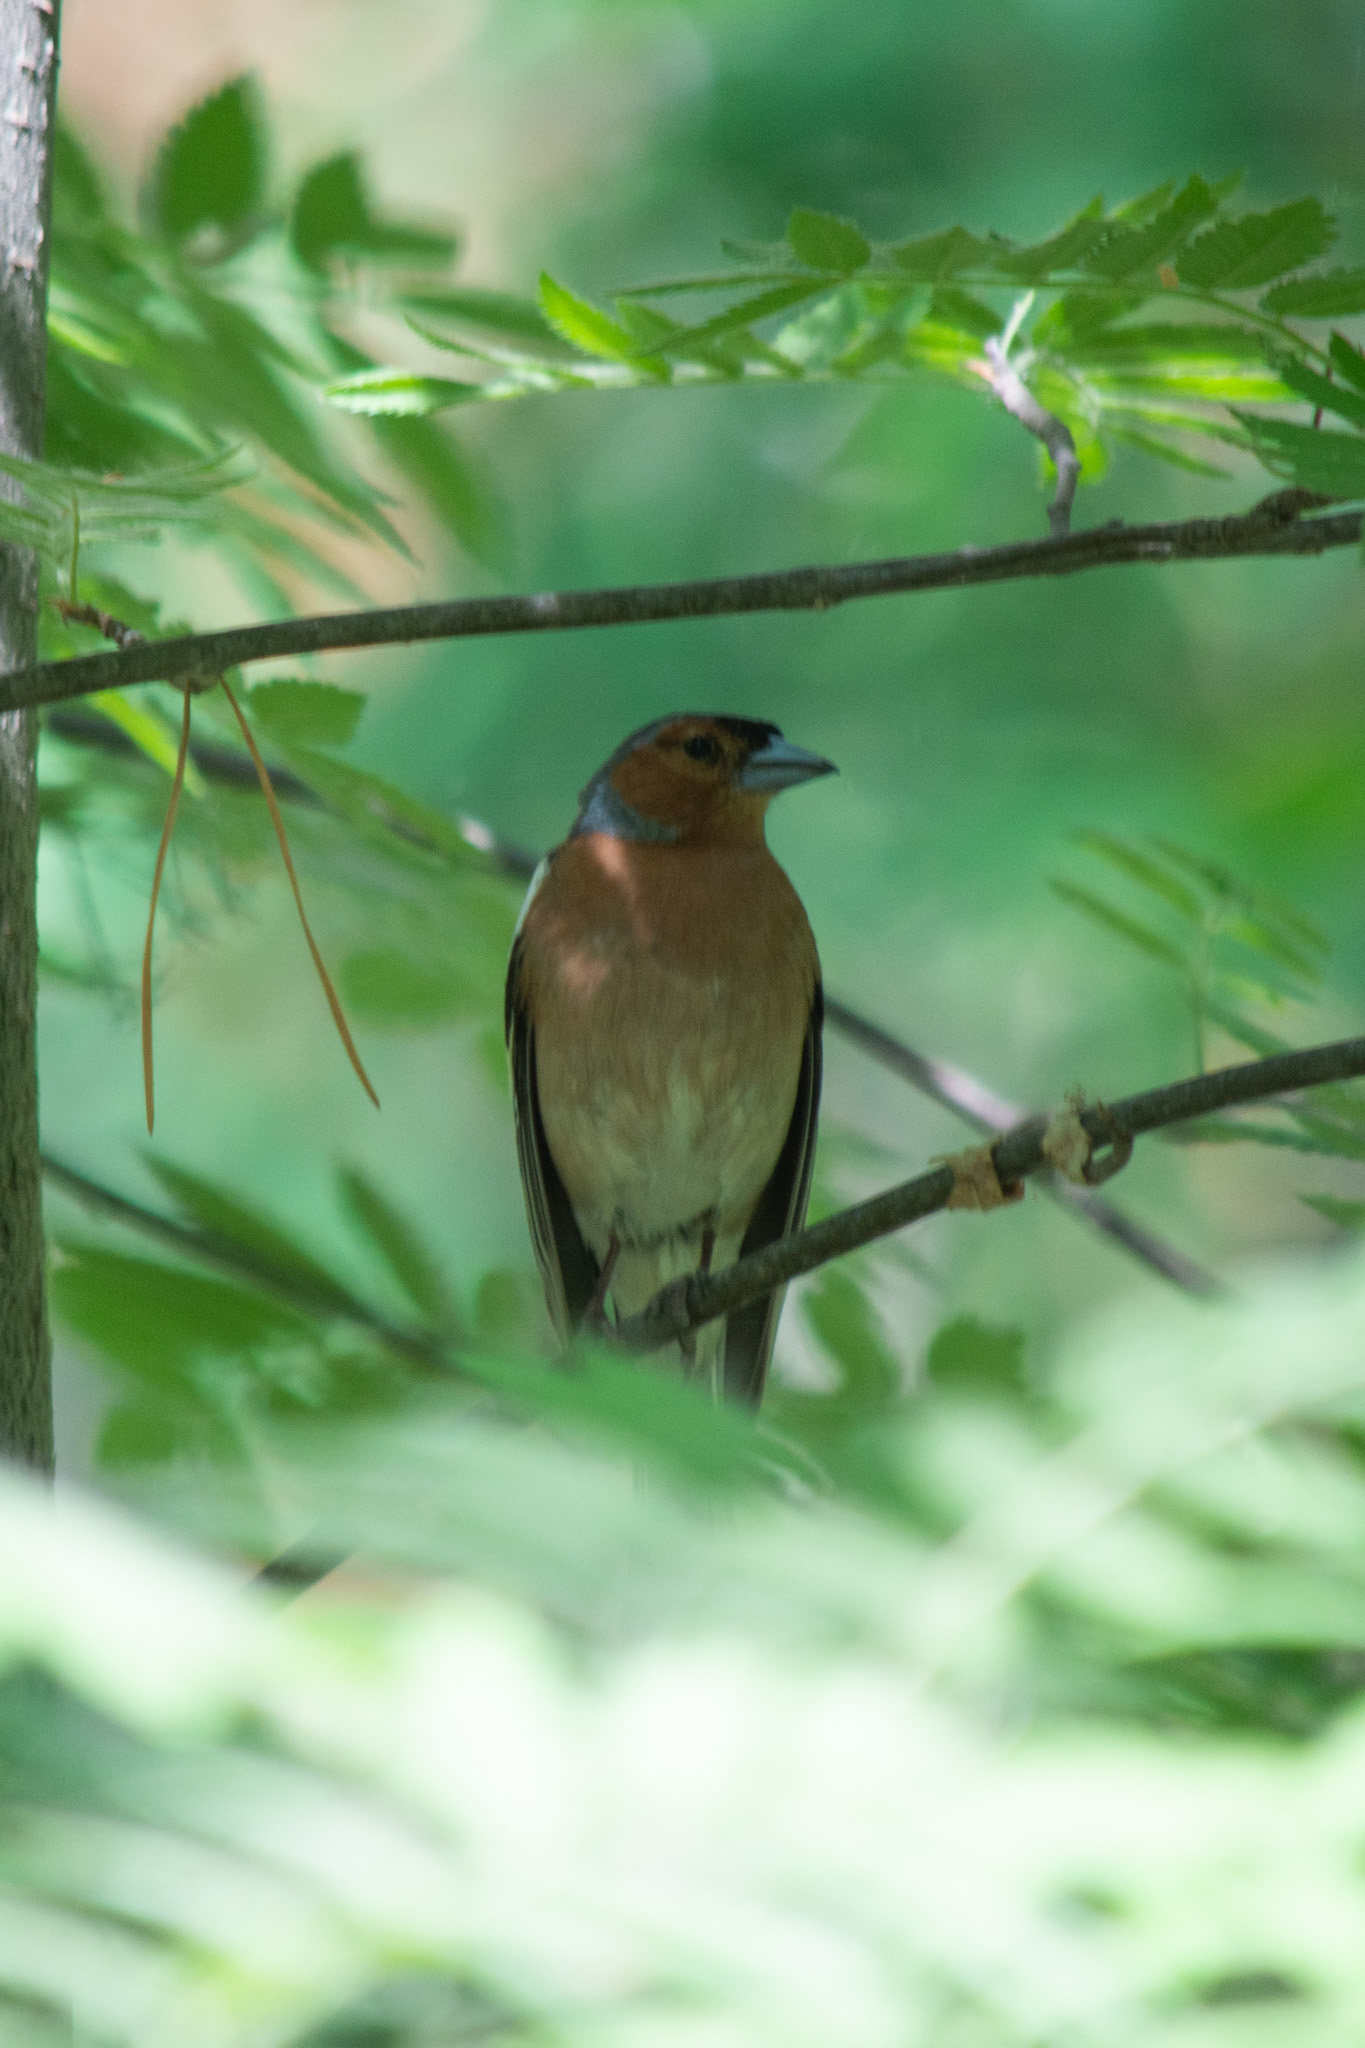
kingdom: Animalia
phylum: Chordata
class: Aves
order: Passeriformes
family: Fringillidae
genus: Fringilla
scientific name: Fringilla coelebs
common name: Common chaffinch
